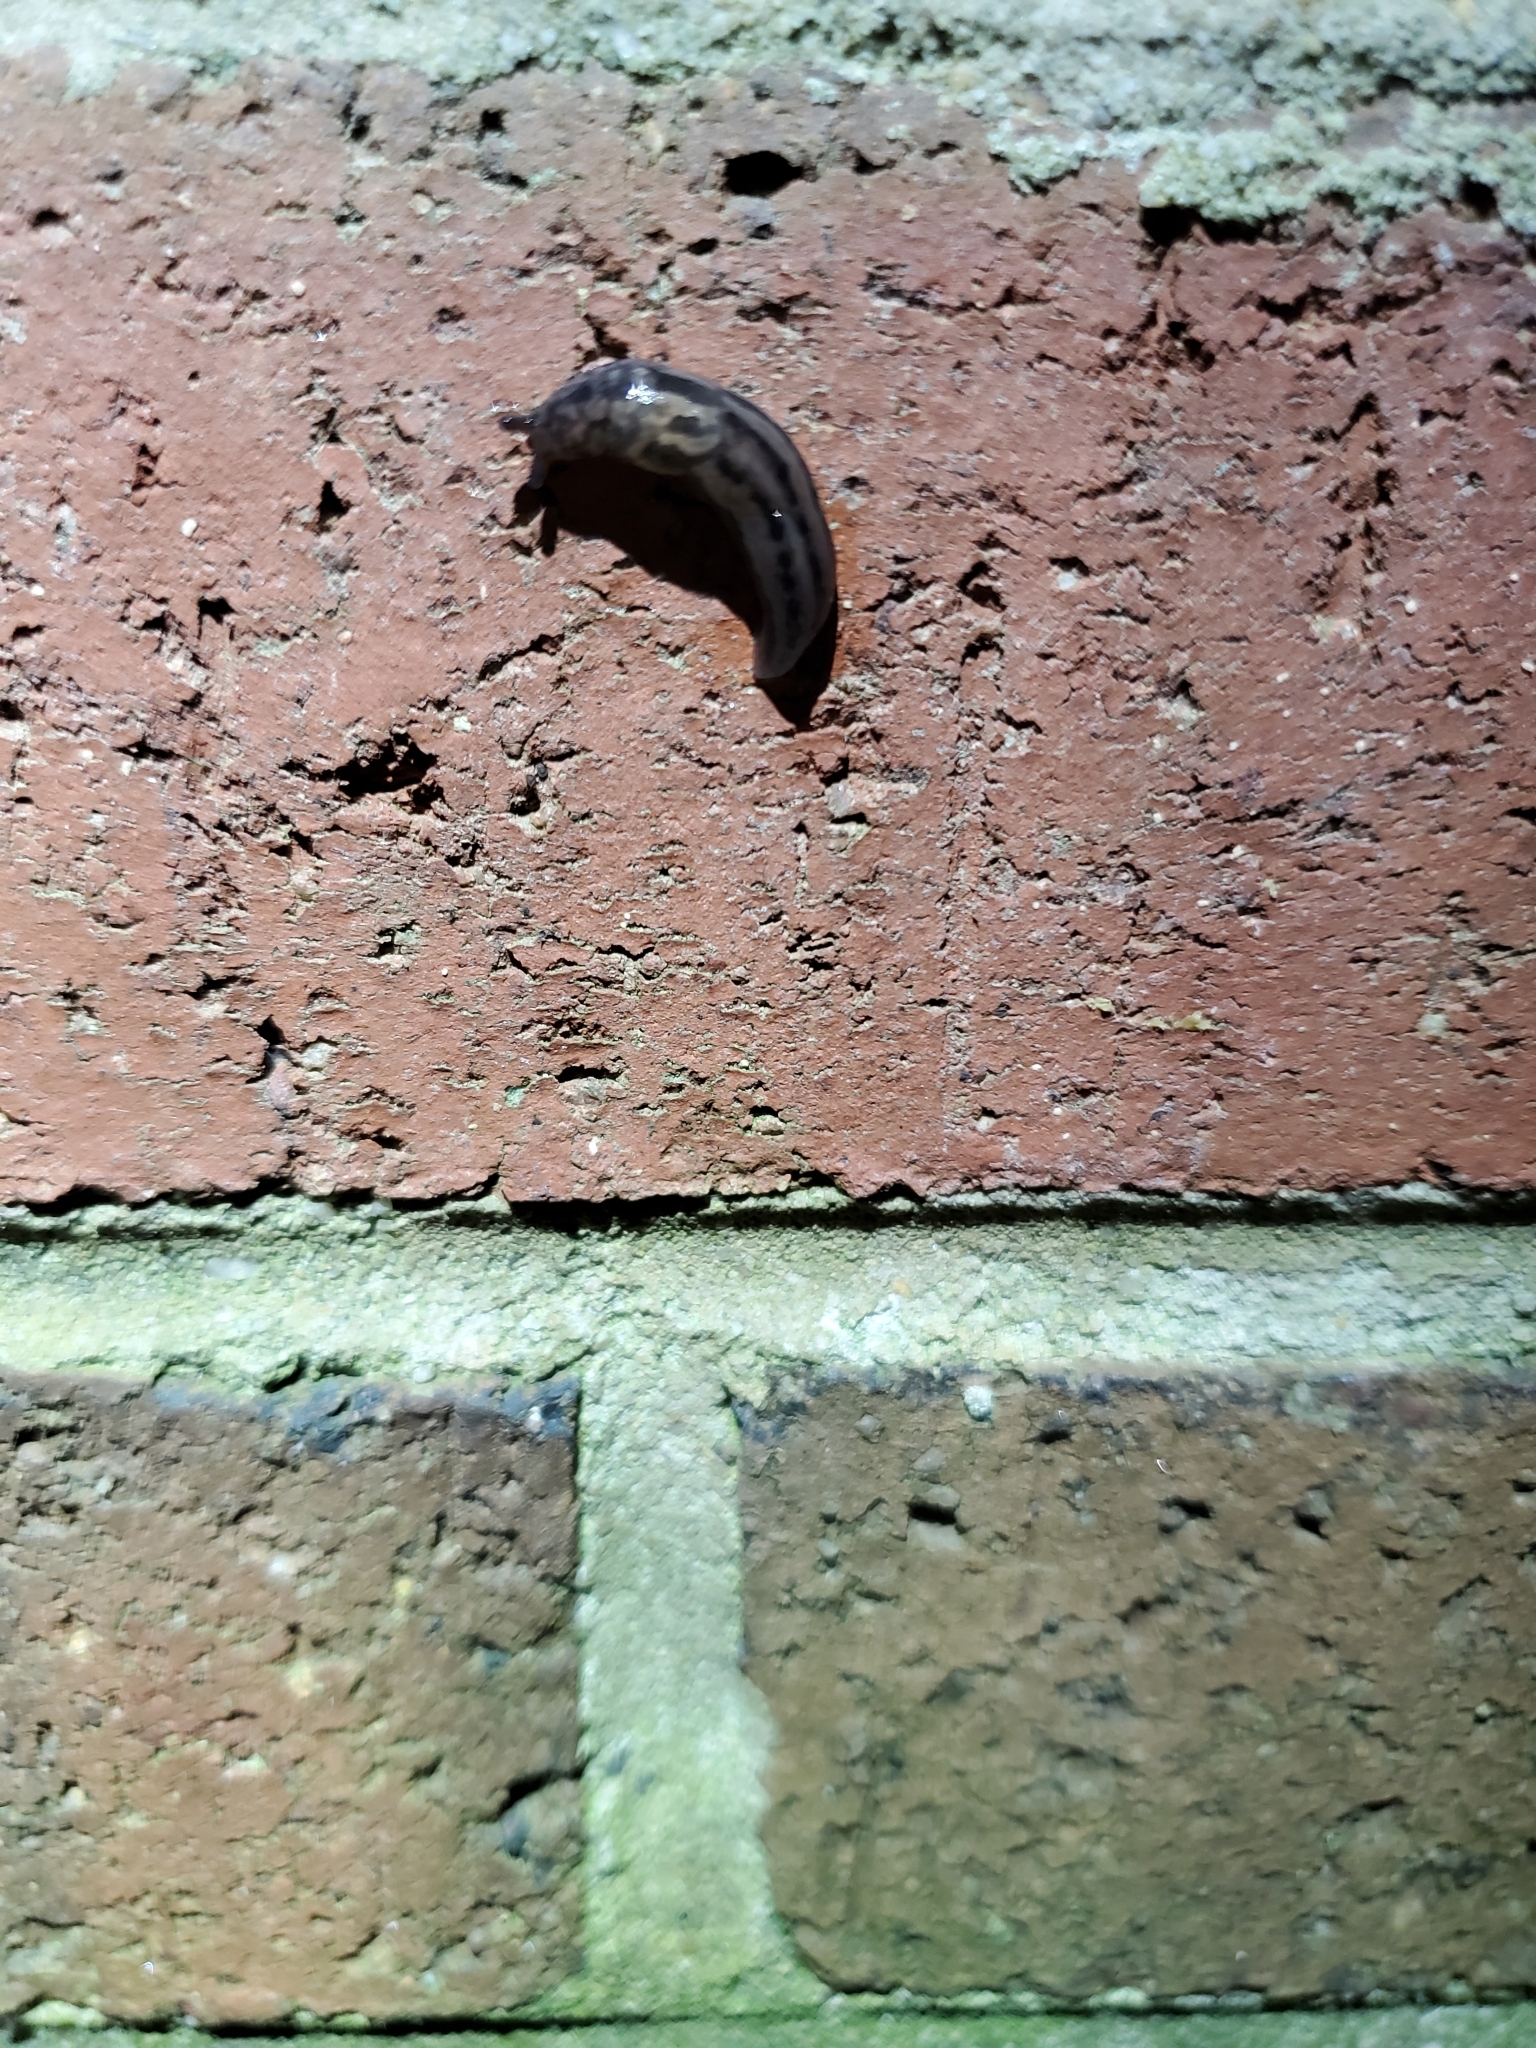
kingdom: Animalia
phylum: Mollusca
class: Gastropoda
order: Stylommatophora
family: Limacidae
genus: Limax
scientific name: Limax maximus
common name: Great grey slug
